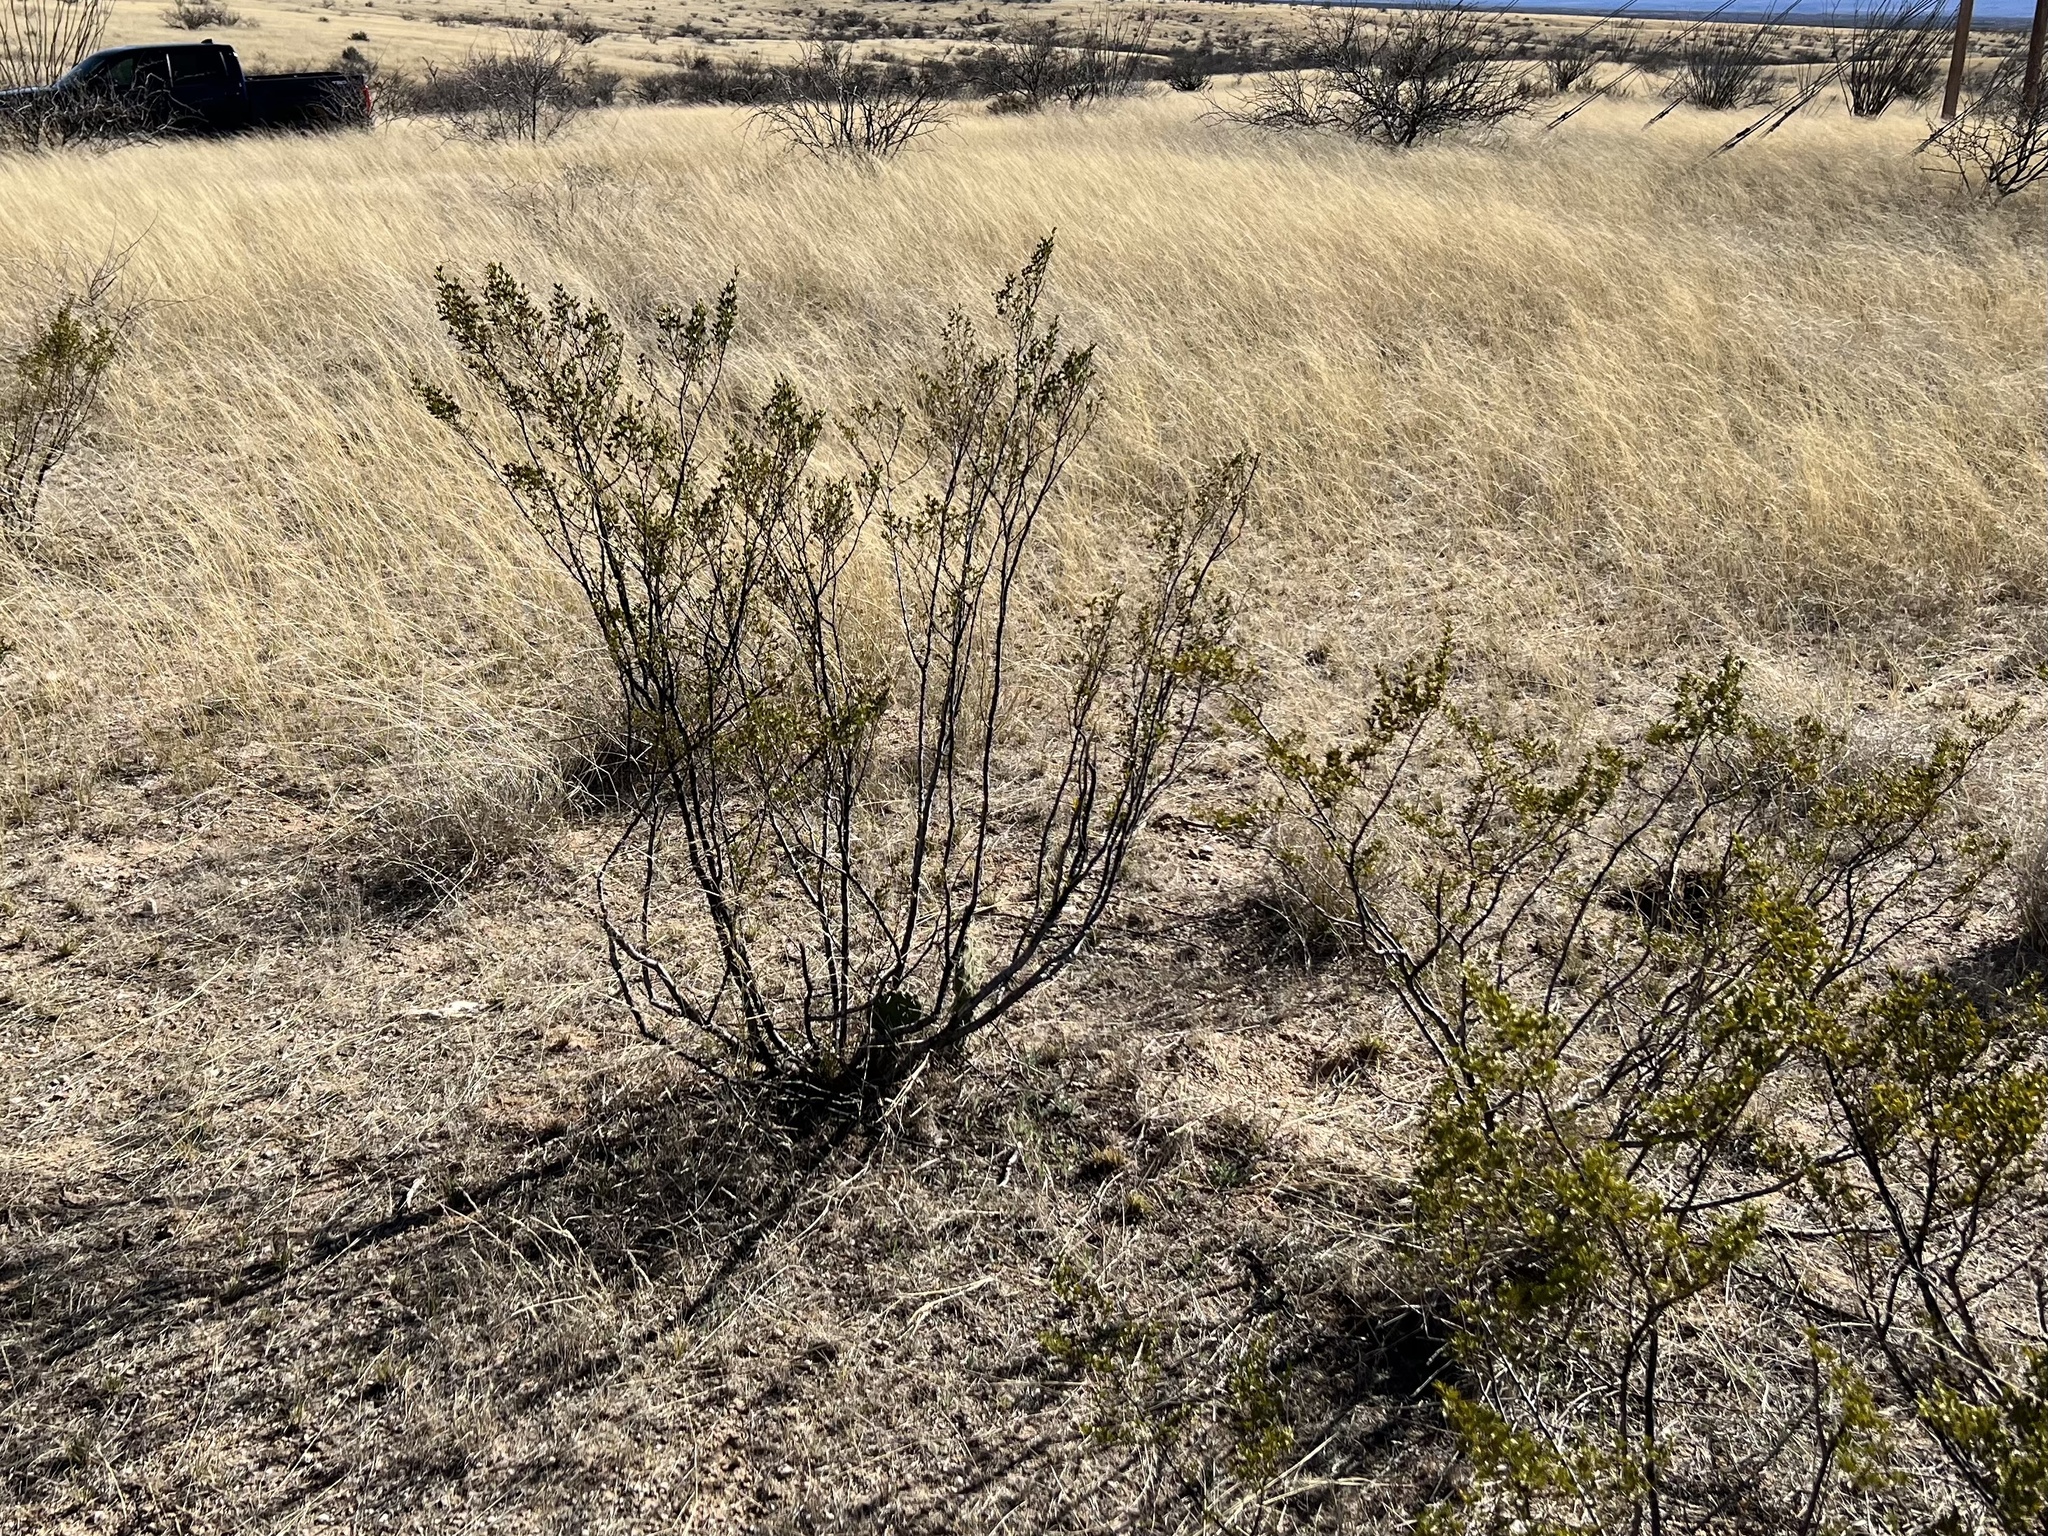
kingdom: Plantae
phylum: Tracheophyta
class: Magnoliopsida
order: Zygophyllales
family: Zygophyllaceae
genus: Larrea
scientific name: Larrea tridentata
